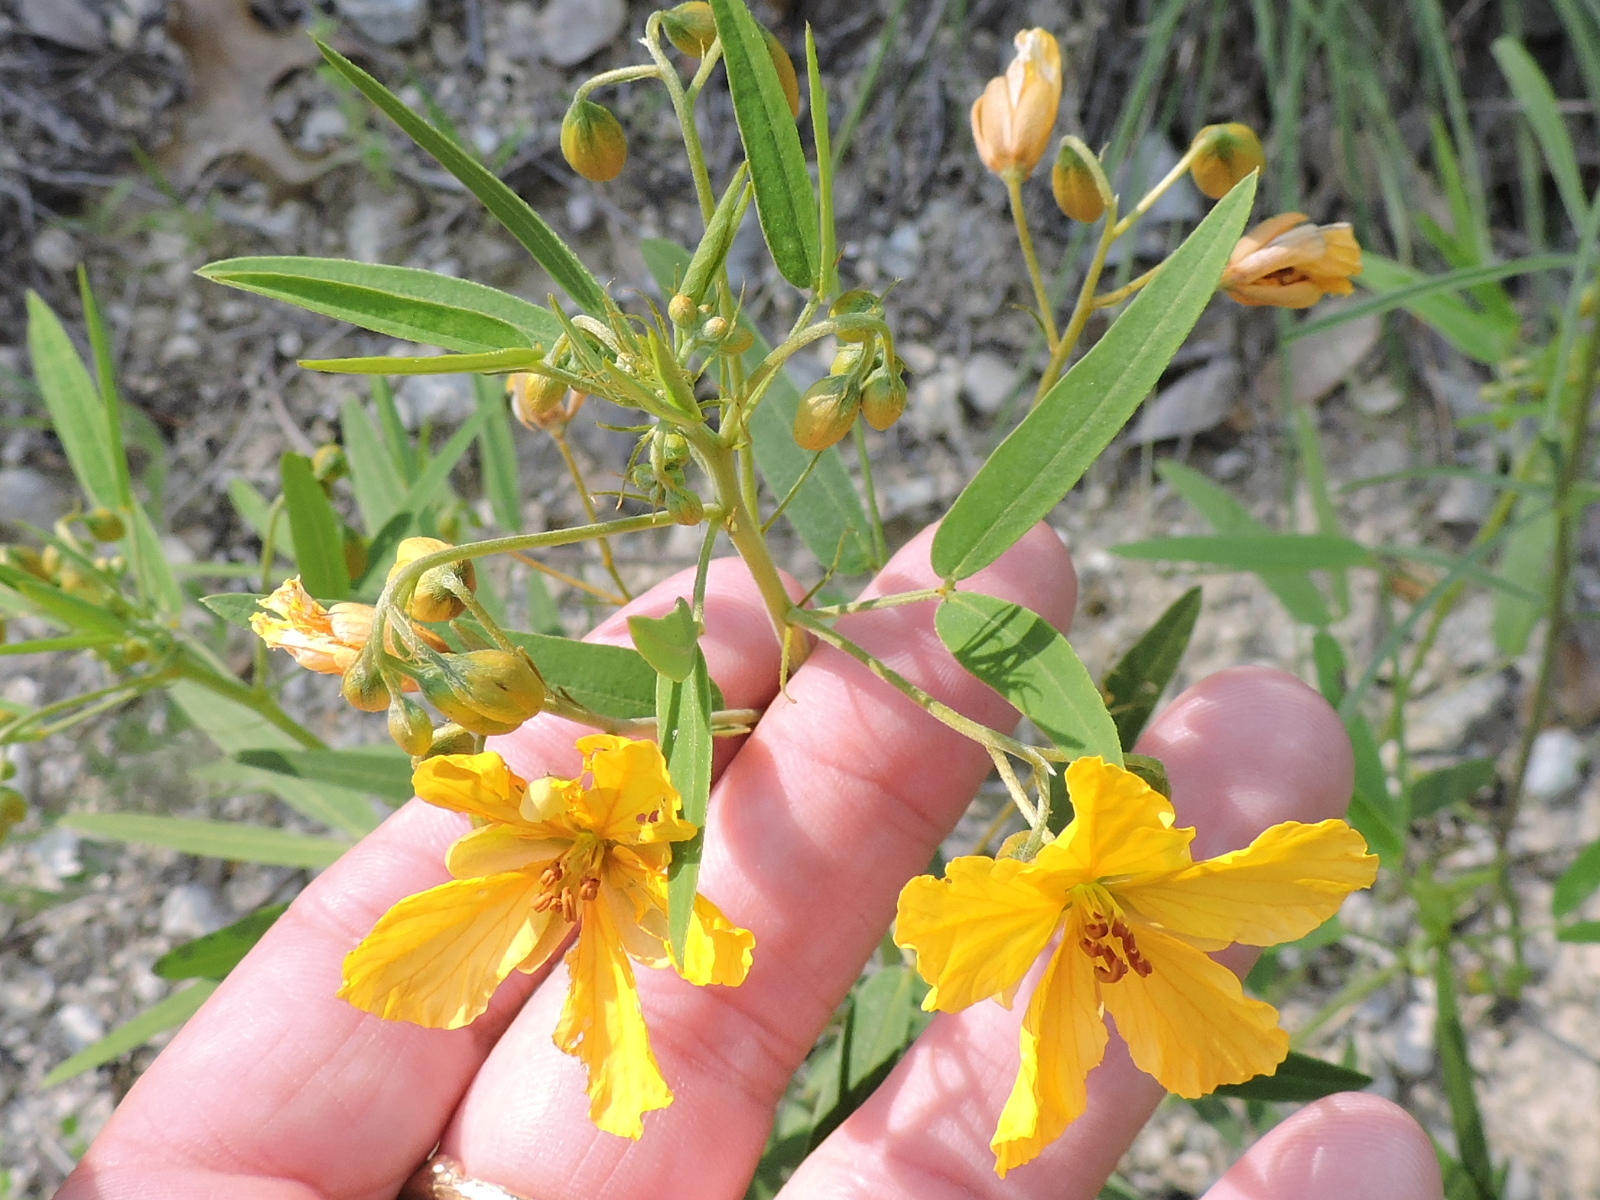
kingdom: Plantae
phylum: Tracheophyta
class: Magnoliopsida
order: Fabales
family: Fabaceae
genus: Senna
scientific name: Senna roemeriana
